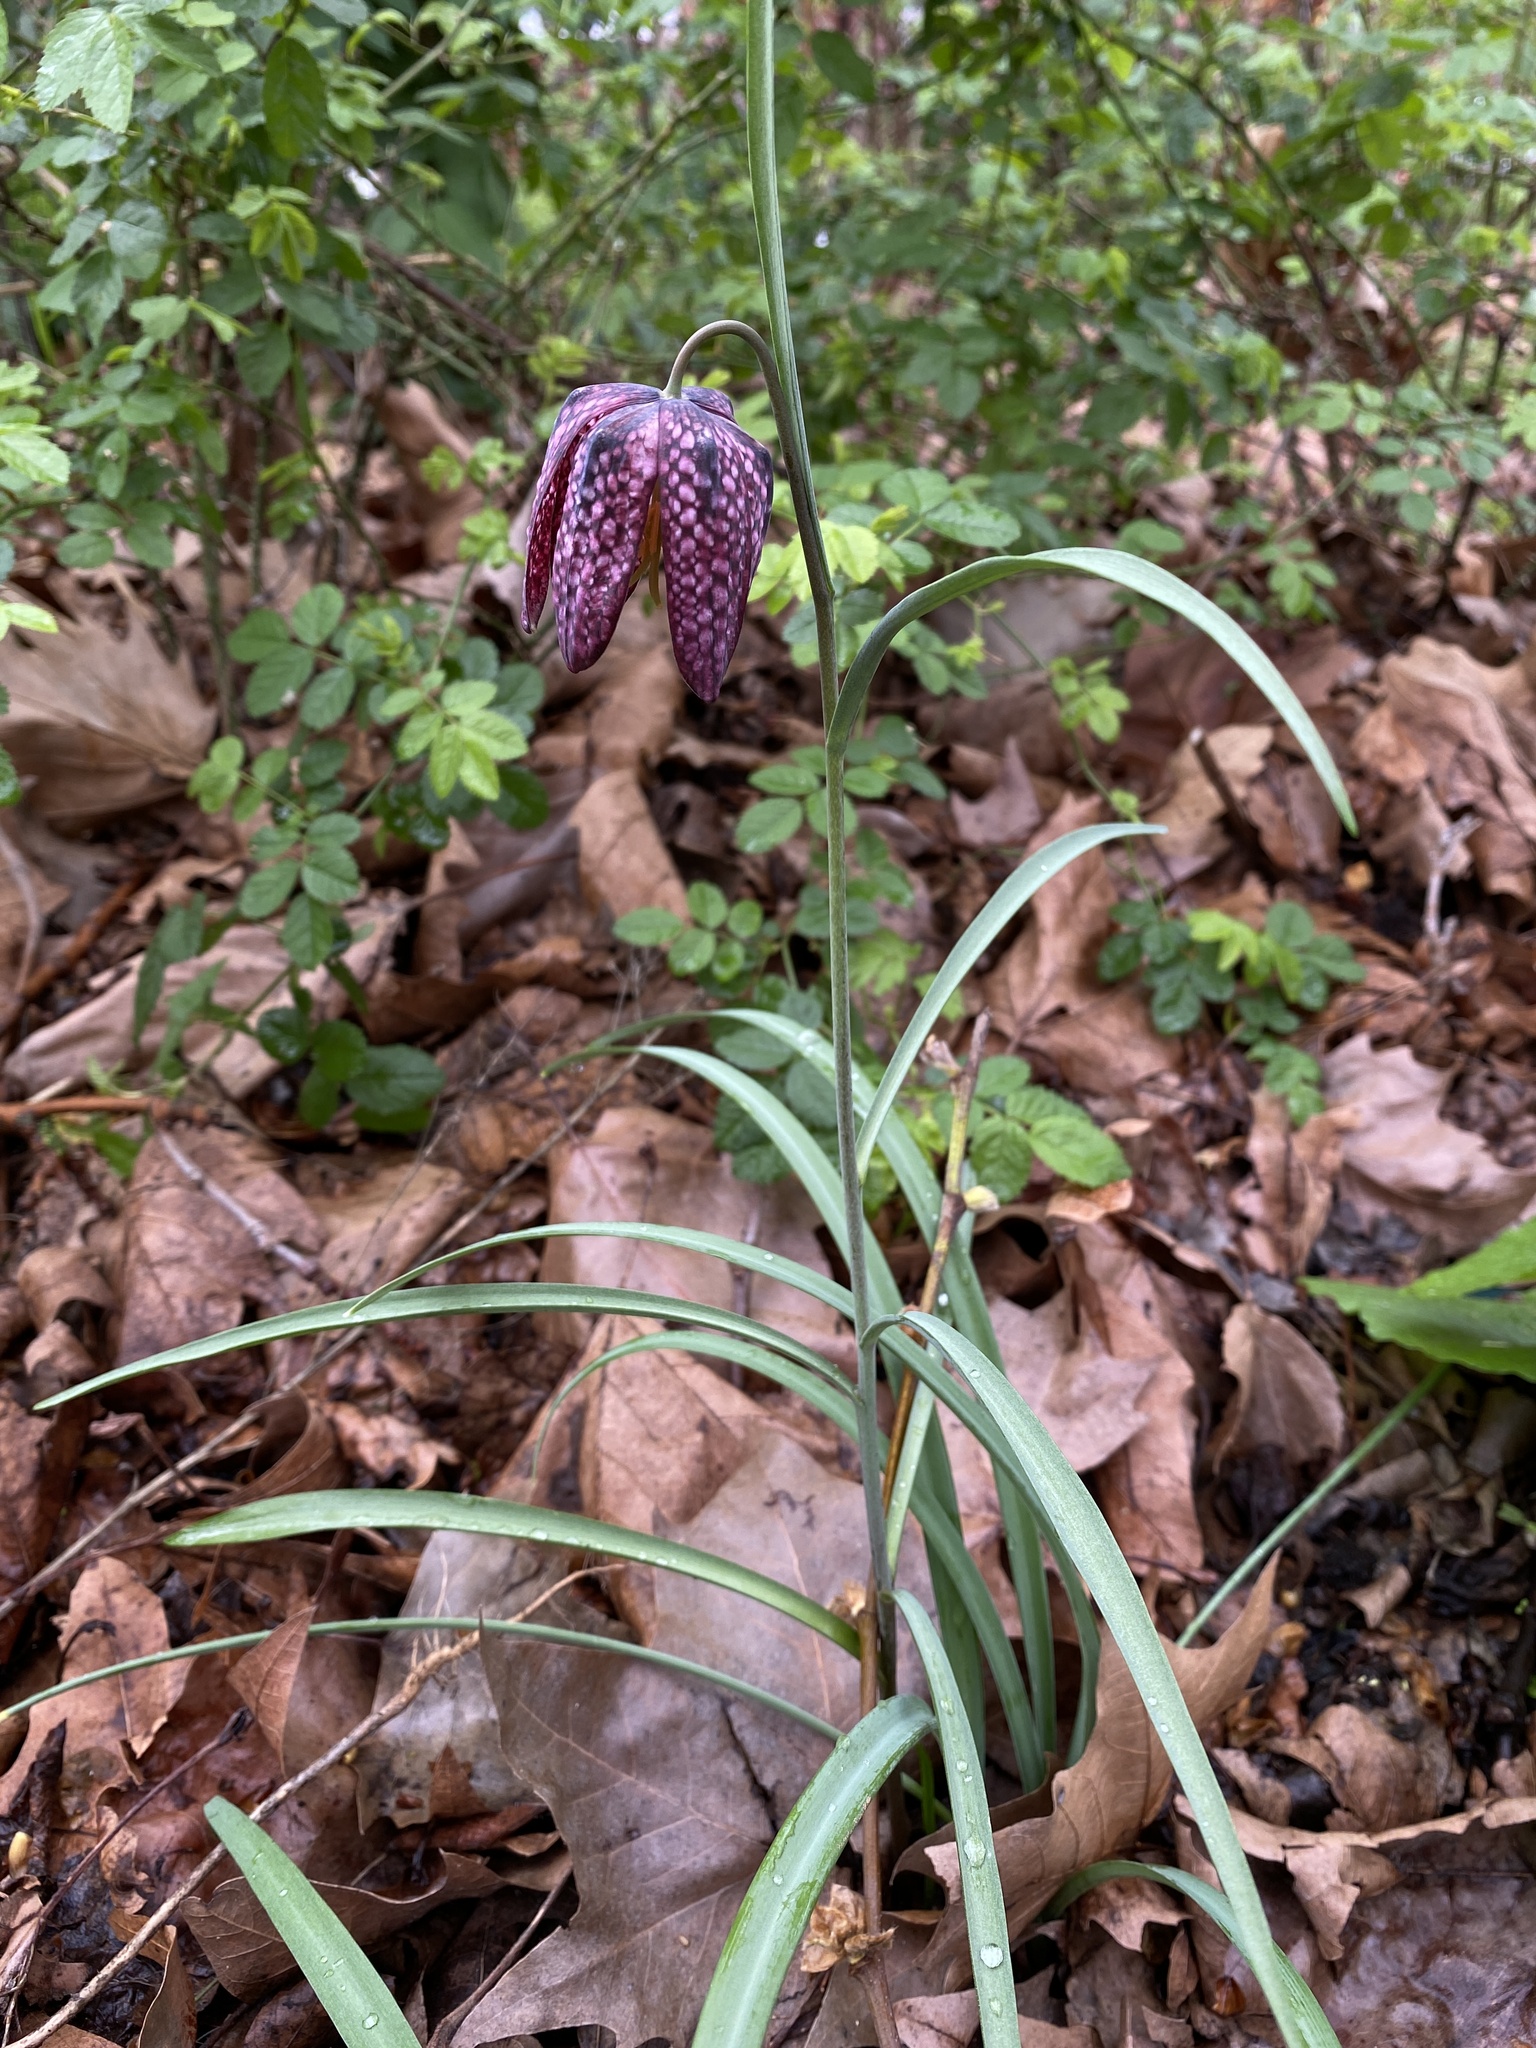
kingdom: Plantae
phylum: Tracheophyta
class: Liliopsida
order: Liliales
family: Liliaceae
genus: Fritillaria
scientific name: Fritillaria meleagris
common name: Fritillary
